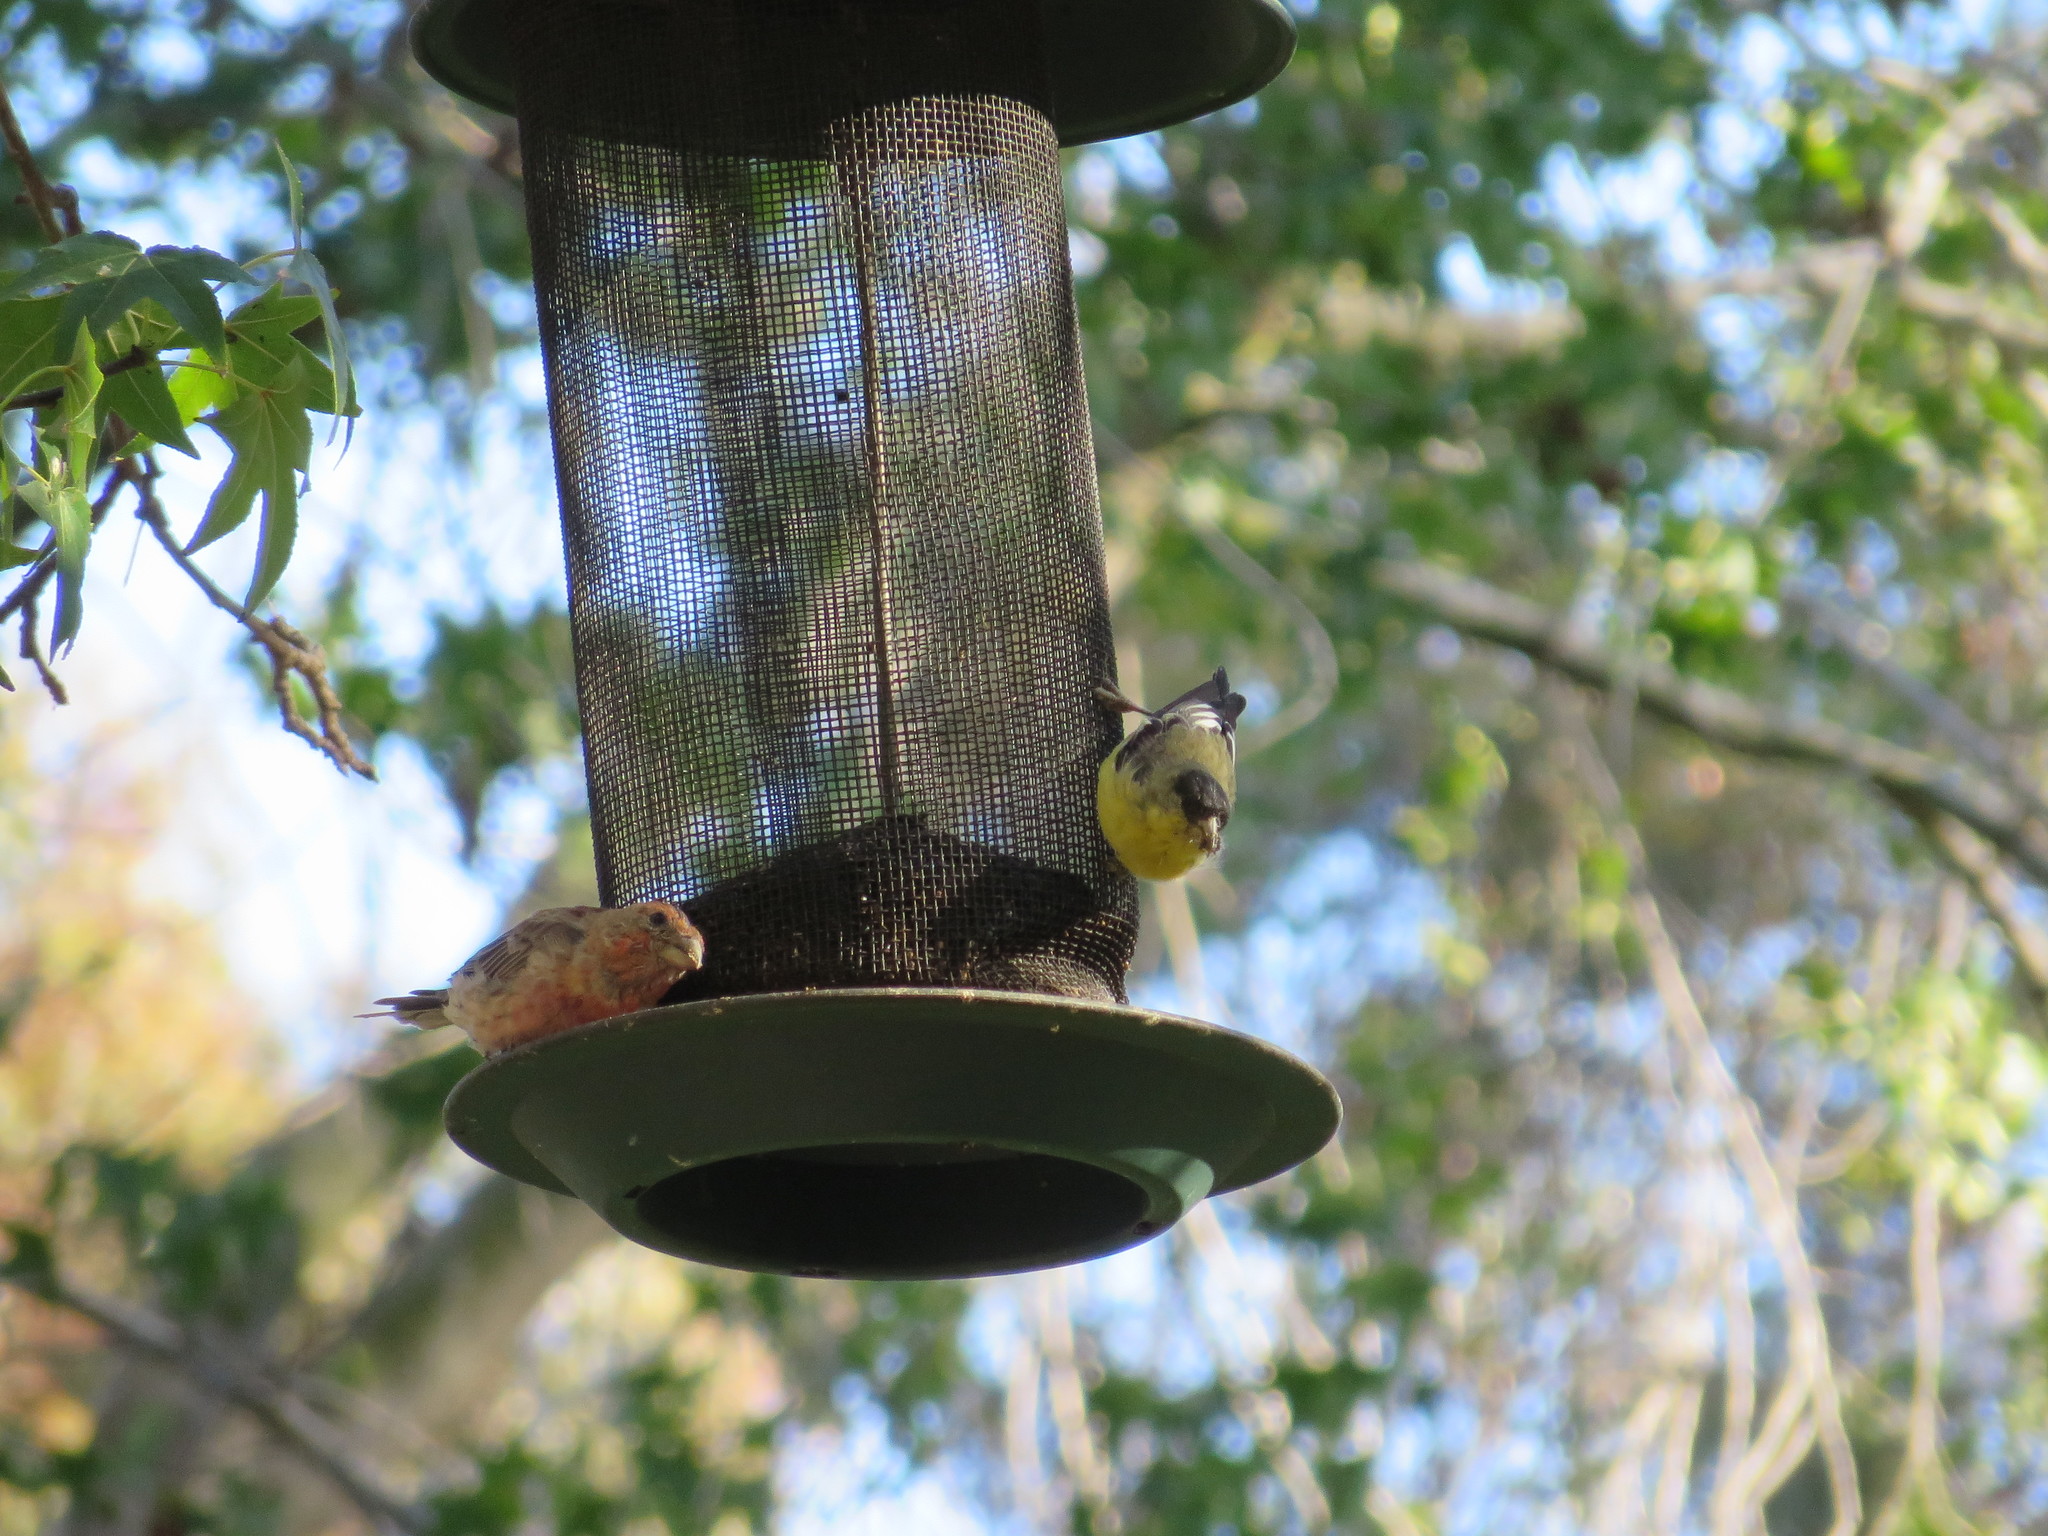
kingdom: Animalia
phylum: Chordata
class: Aves
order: Passeriformes
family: Fringillidae
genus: Haemorhous
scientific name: Haemorhous mexicanus
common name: House finch
